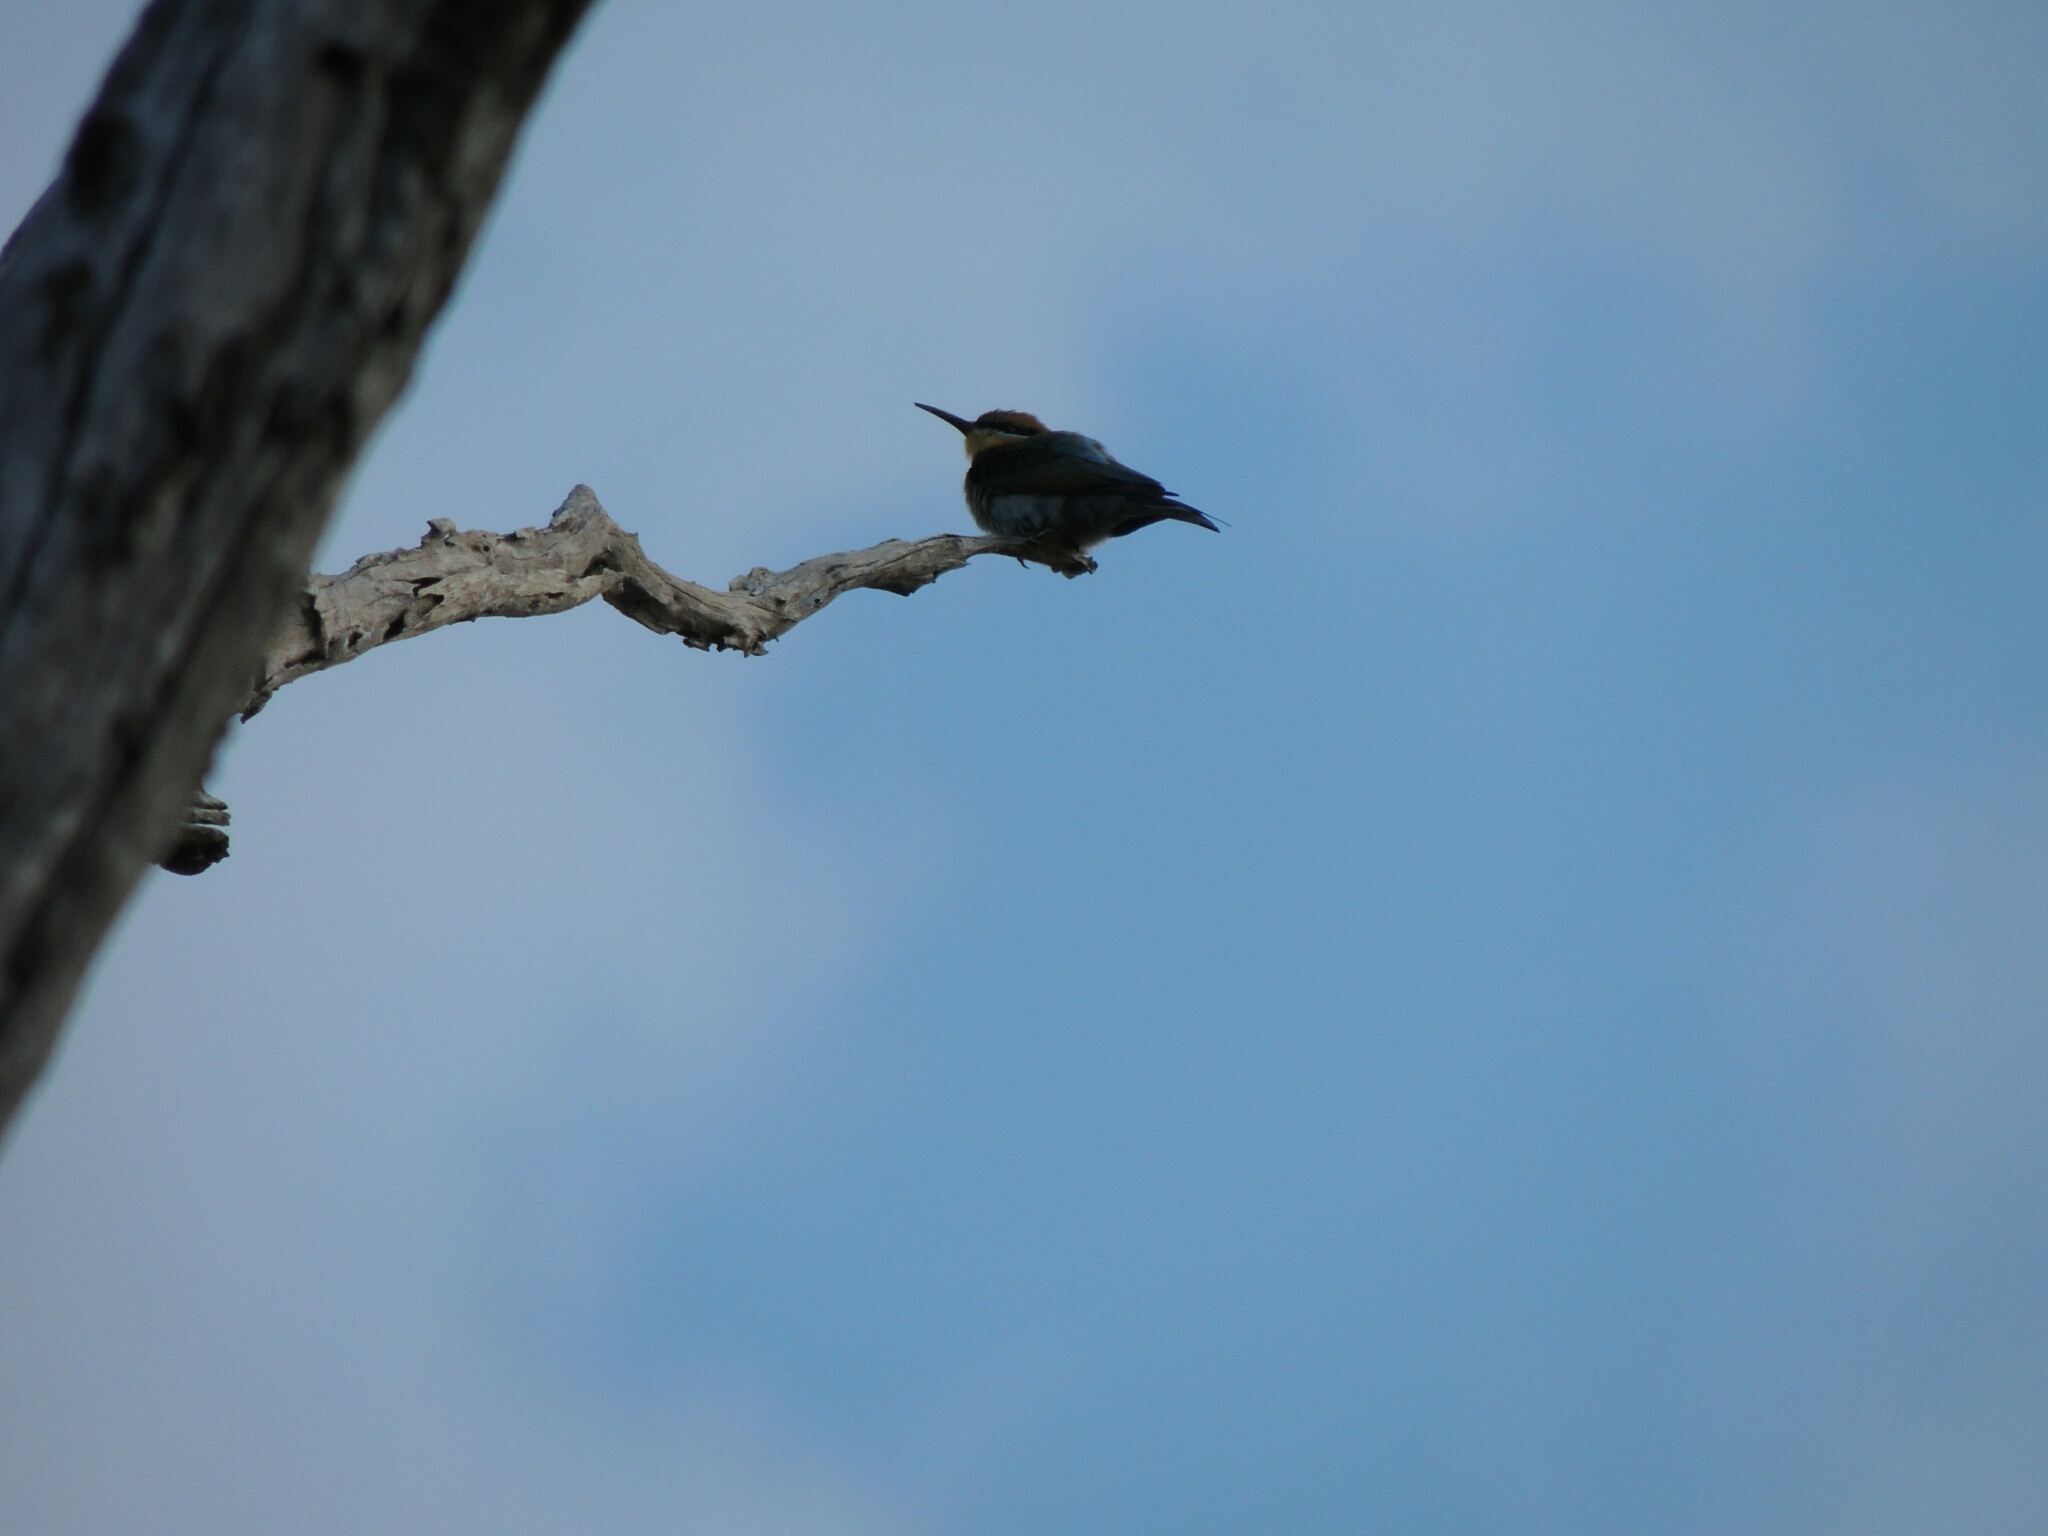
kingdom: Animalia
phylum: Chordata
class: Aves
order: Coraciiformes
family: Meropidae
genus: Merops
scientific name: Merops ornatus
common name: Rainbow bee-eater
